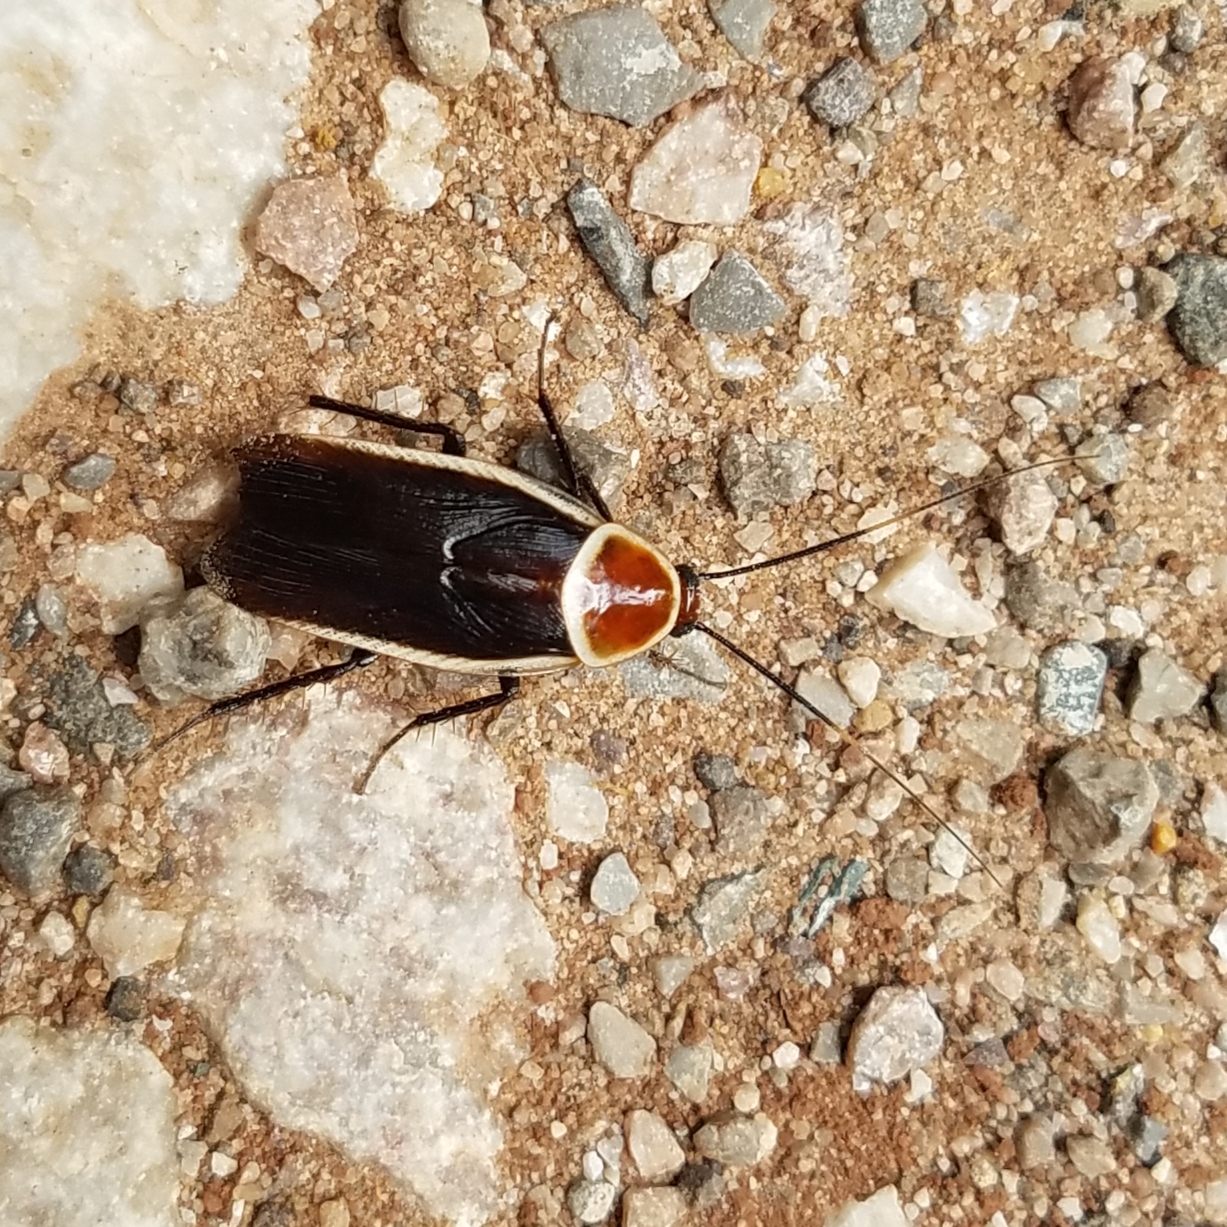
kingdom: Animalia
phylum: Arthropoda
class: Insecta
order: Blattodea
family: Ectobiidae
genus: Pseudomops
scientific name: Pseudomops septentrionalis
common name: Pale-bordered field cockroach
